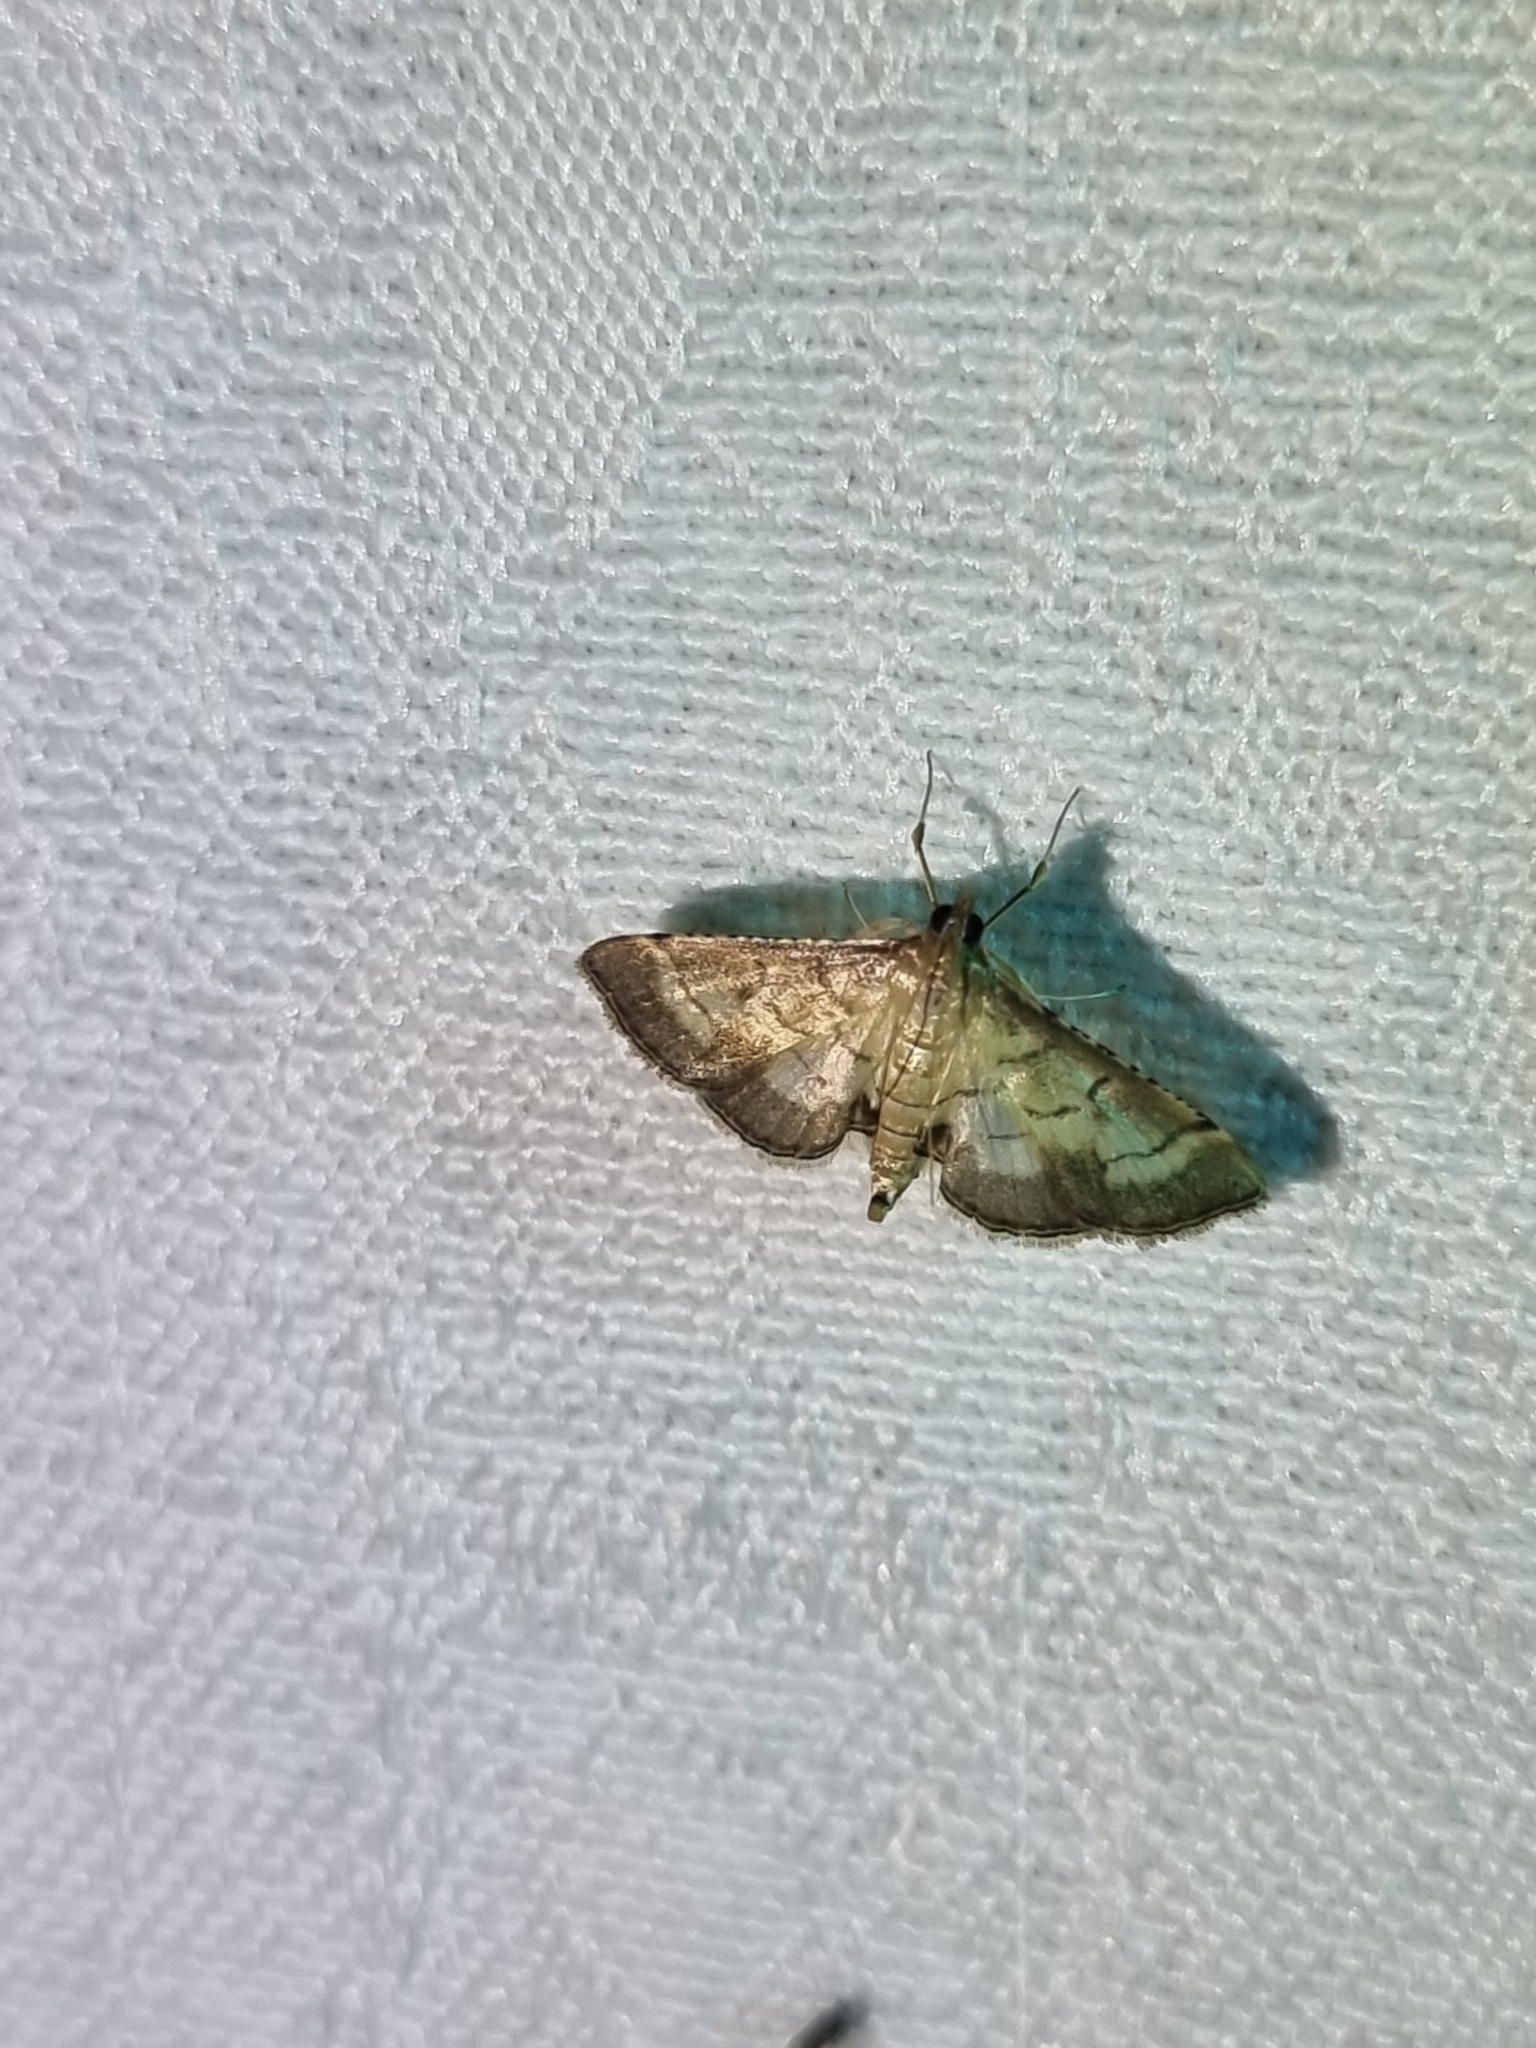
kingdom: Animalia
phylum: Arthropoda
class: Insecta
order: Lepidoptera
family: Crambidae
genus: Cnaphalocrocis
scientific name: Cnaphalocrocis poeyalis
